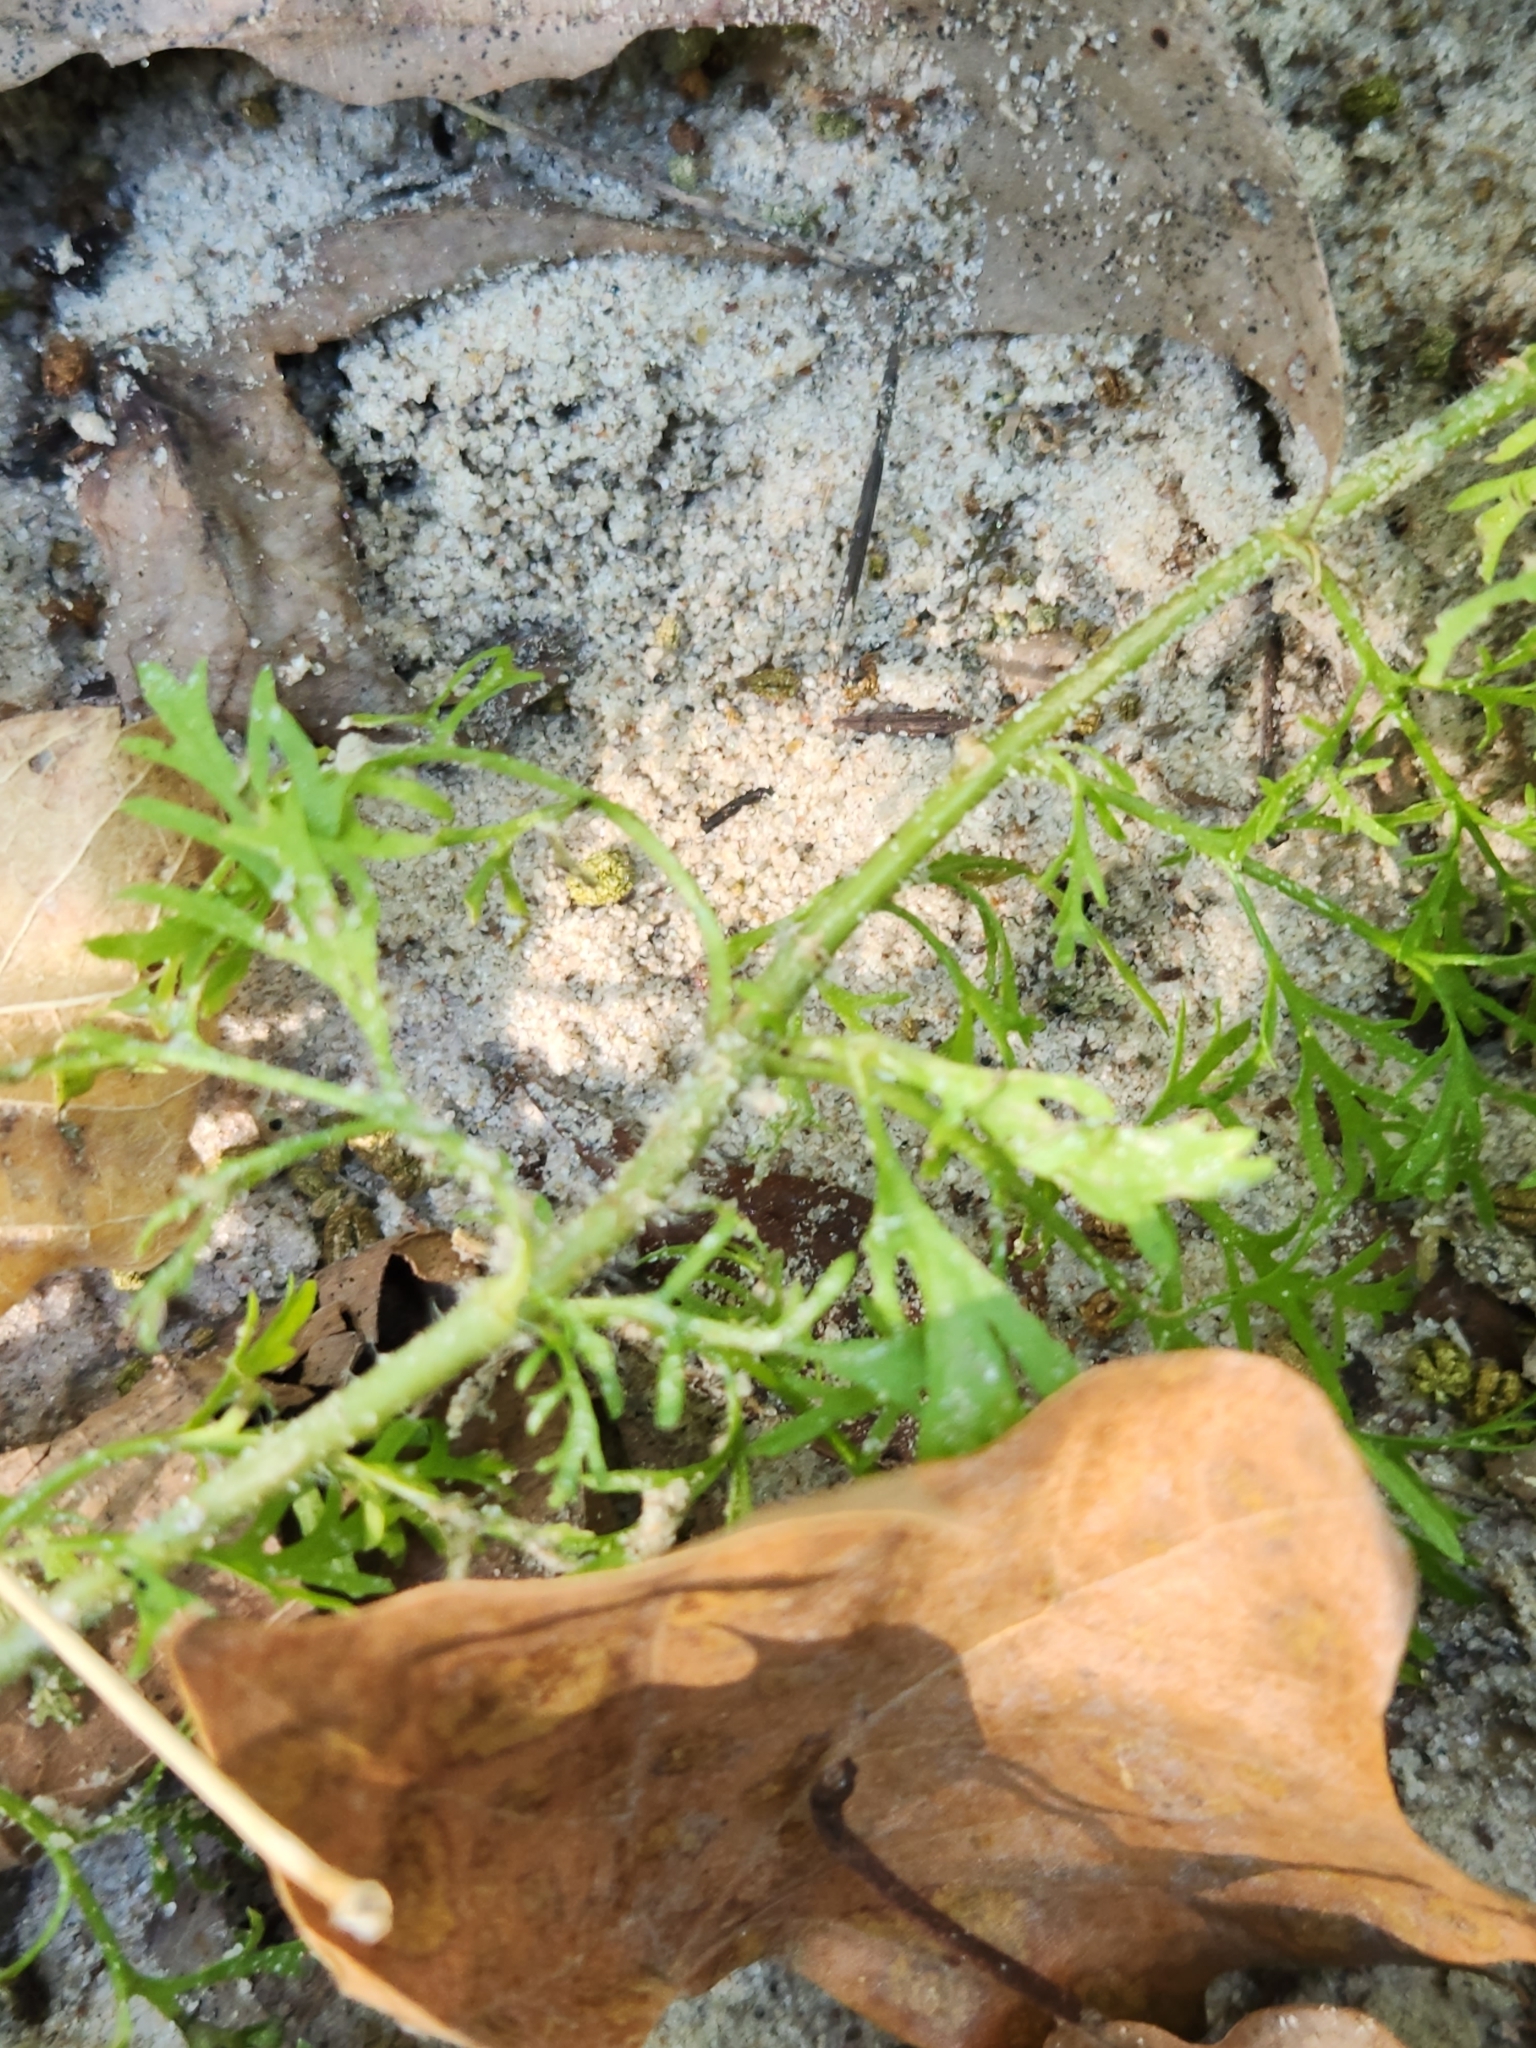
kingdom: Plantae
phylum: Tracheophyta
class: Magnoliopsida
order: Asterales
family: Asteraceae
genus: Eupatorium
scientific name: Eupatorium capillifolium
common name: Dog-fennel
